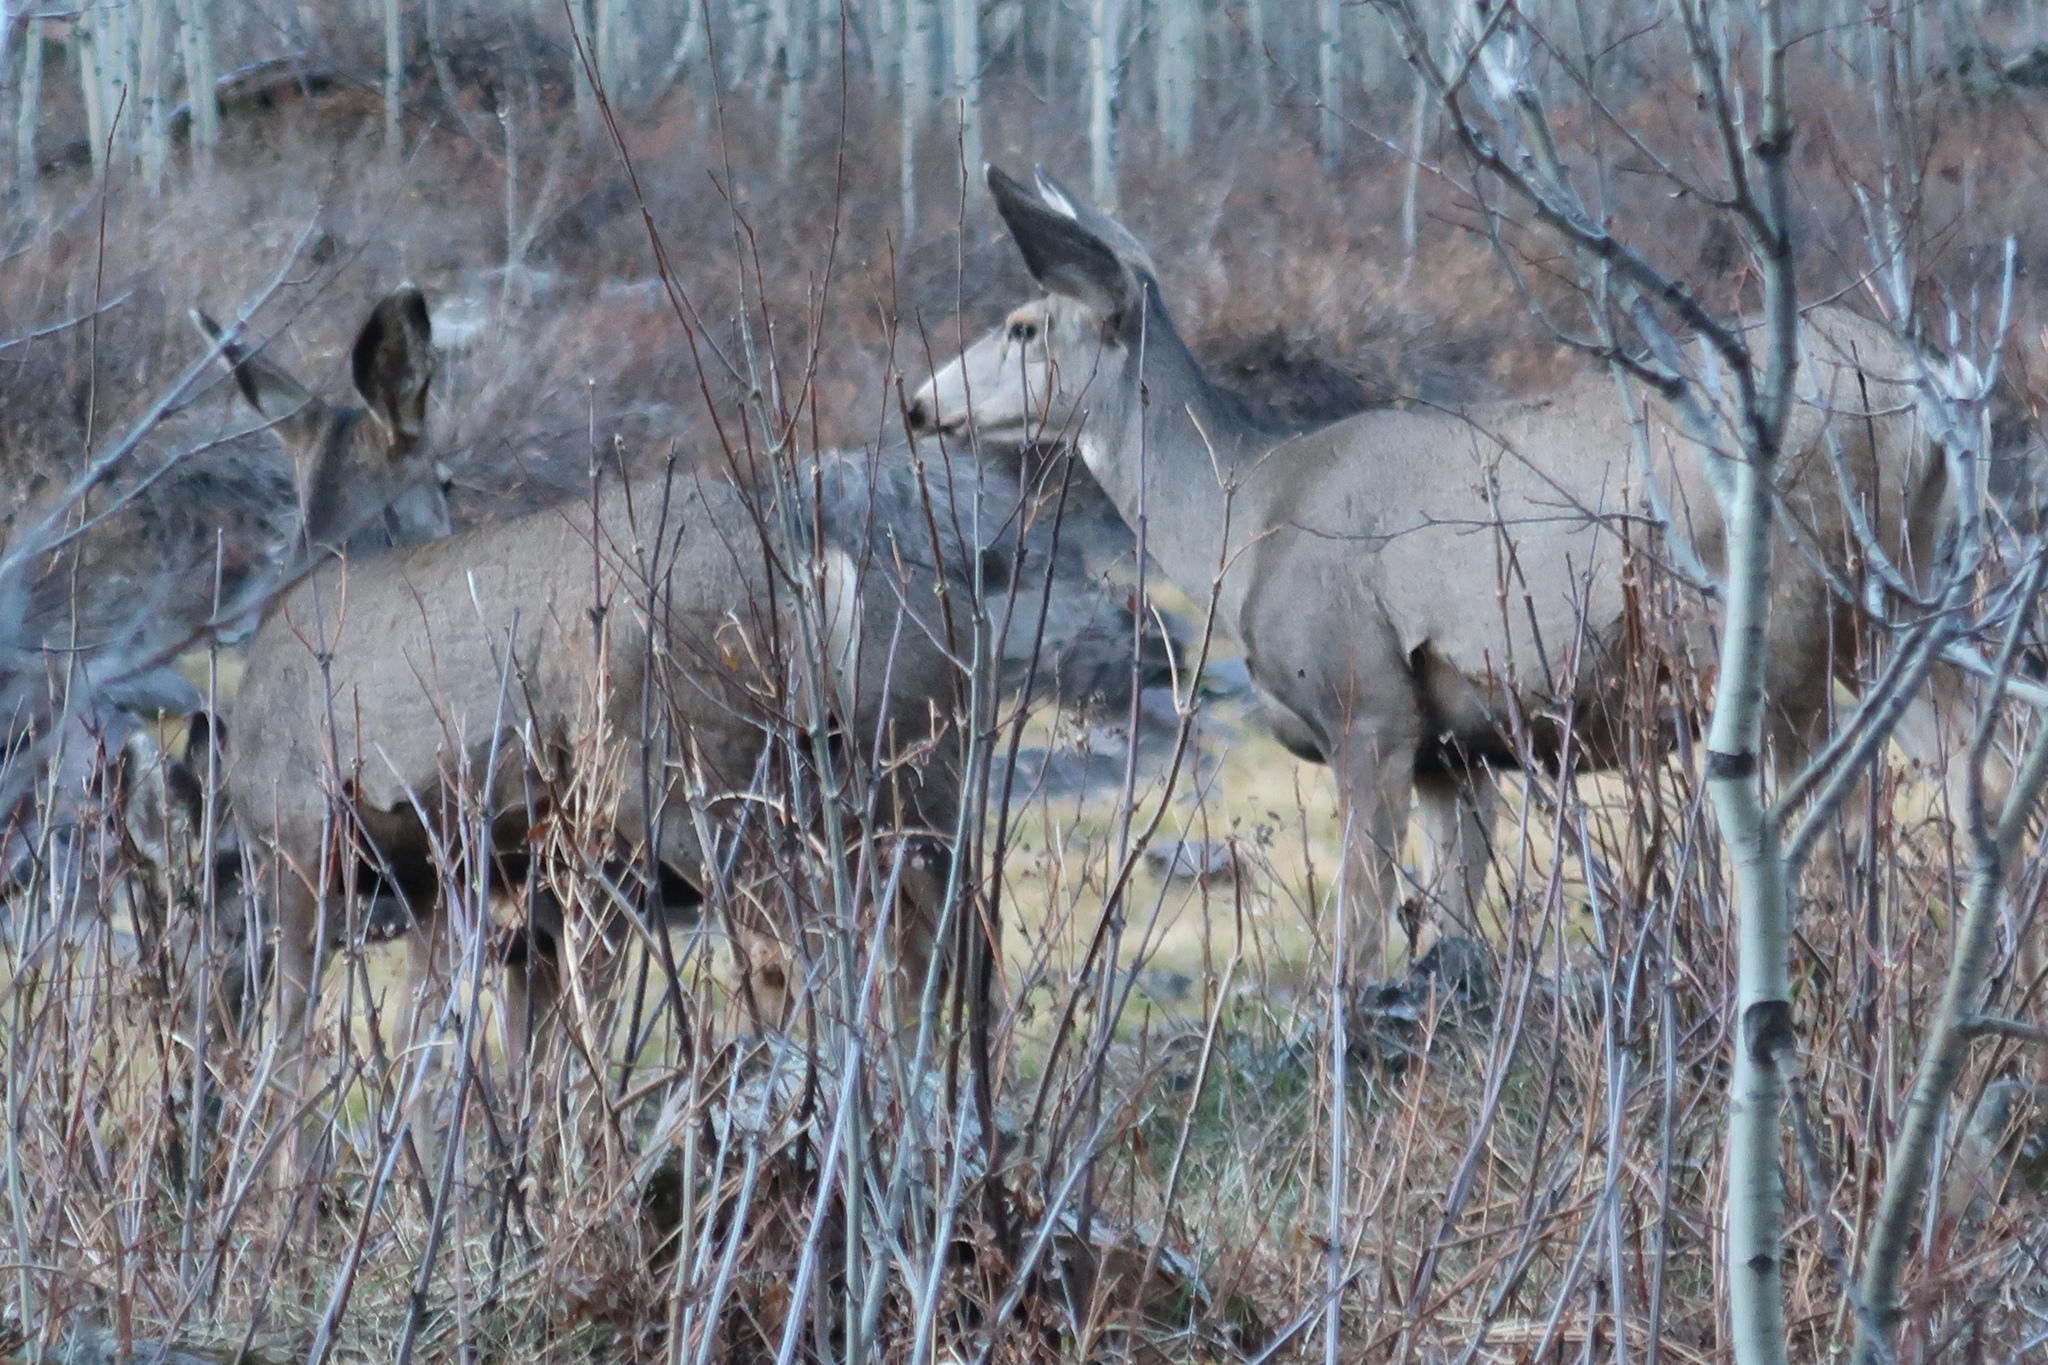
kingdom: Animalia
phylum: Chordata
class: Mammalia
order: Artiodactyla
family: Cervidae
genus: Odocoileus
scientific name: Odocoileus hemionus
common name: Mule deer
